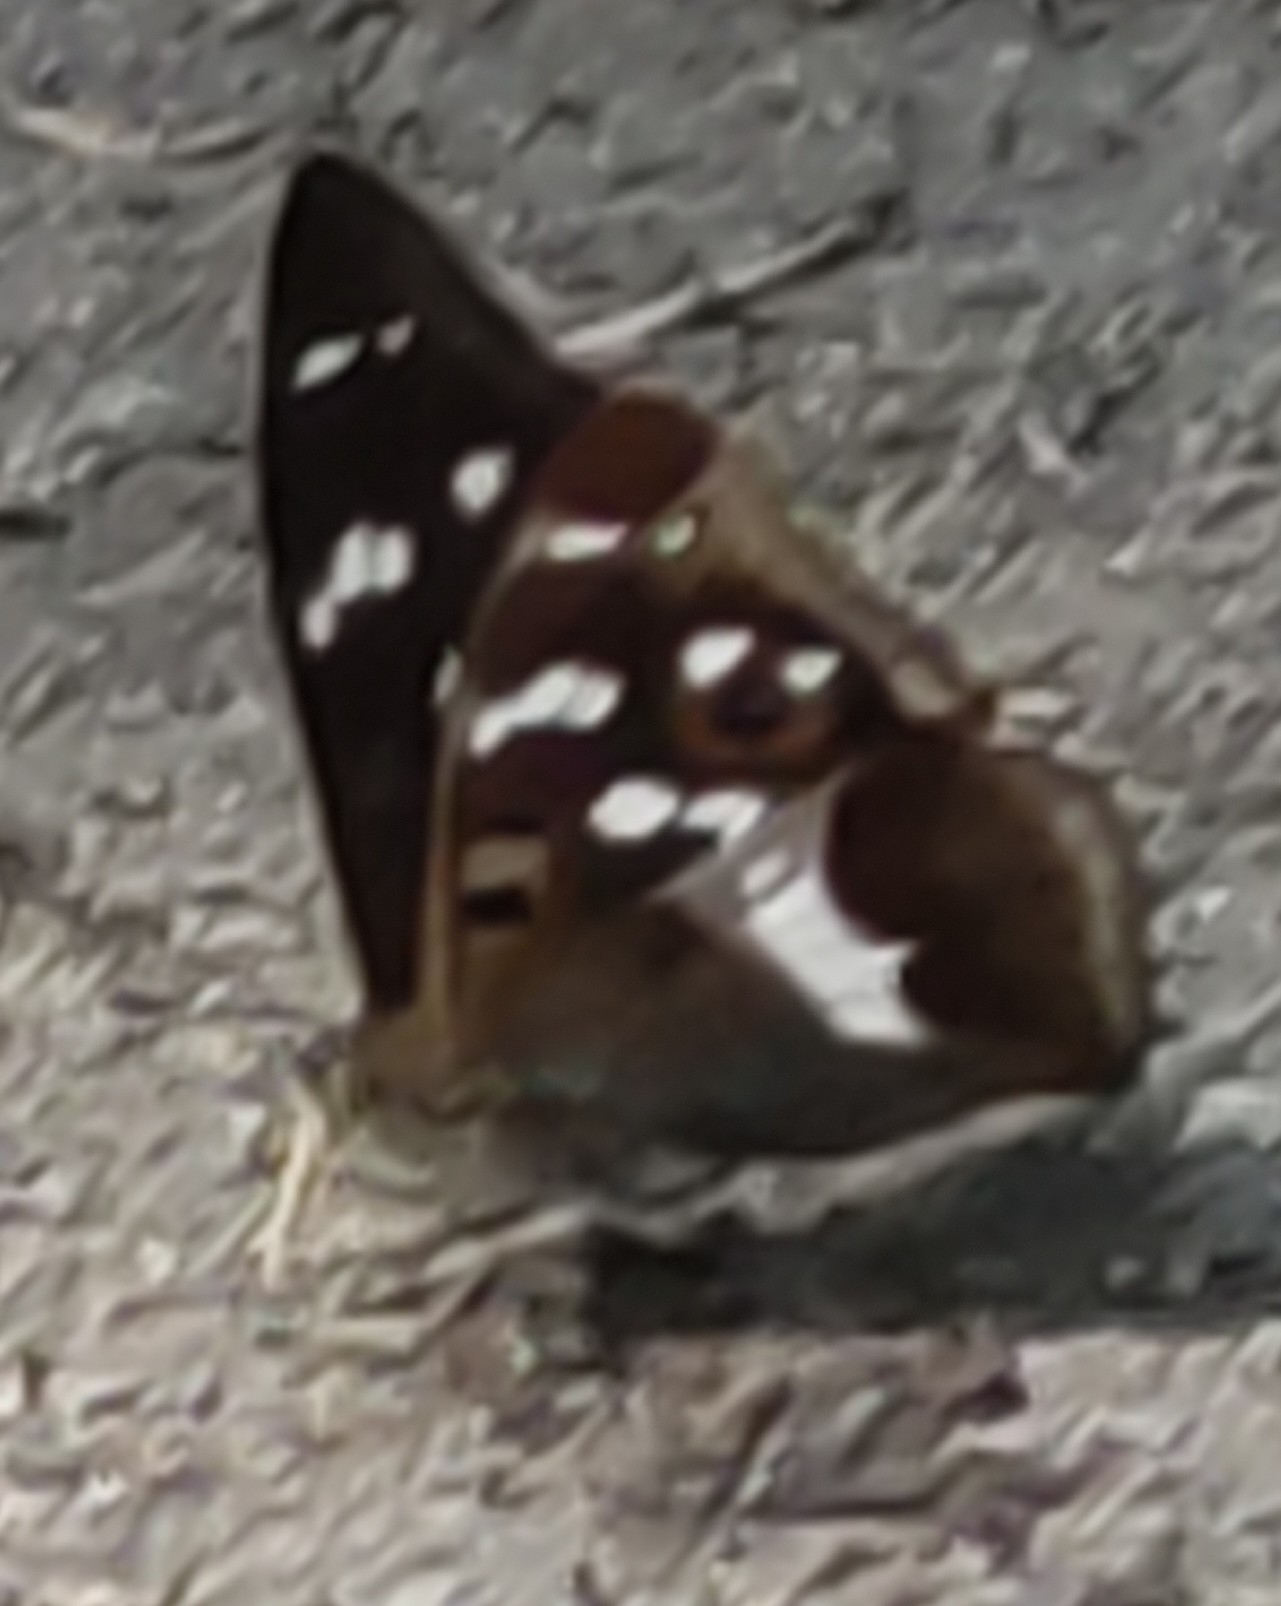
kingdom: Animalia
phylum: Arthropoda
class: Insecta
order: Lepidoptera
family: Nymphalidae
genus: Apatura
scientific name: Apatura iris
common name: Purple emperor
